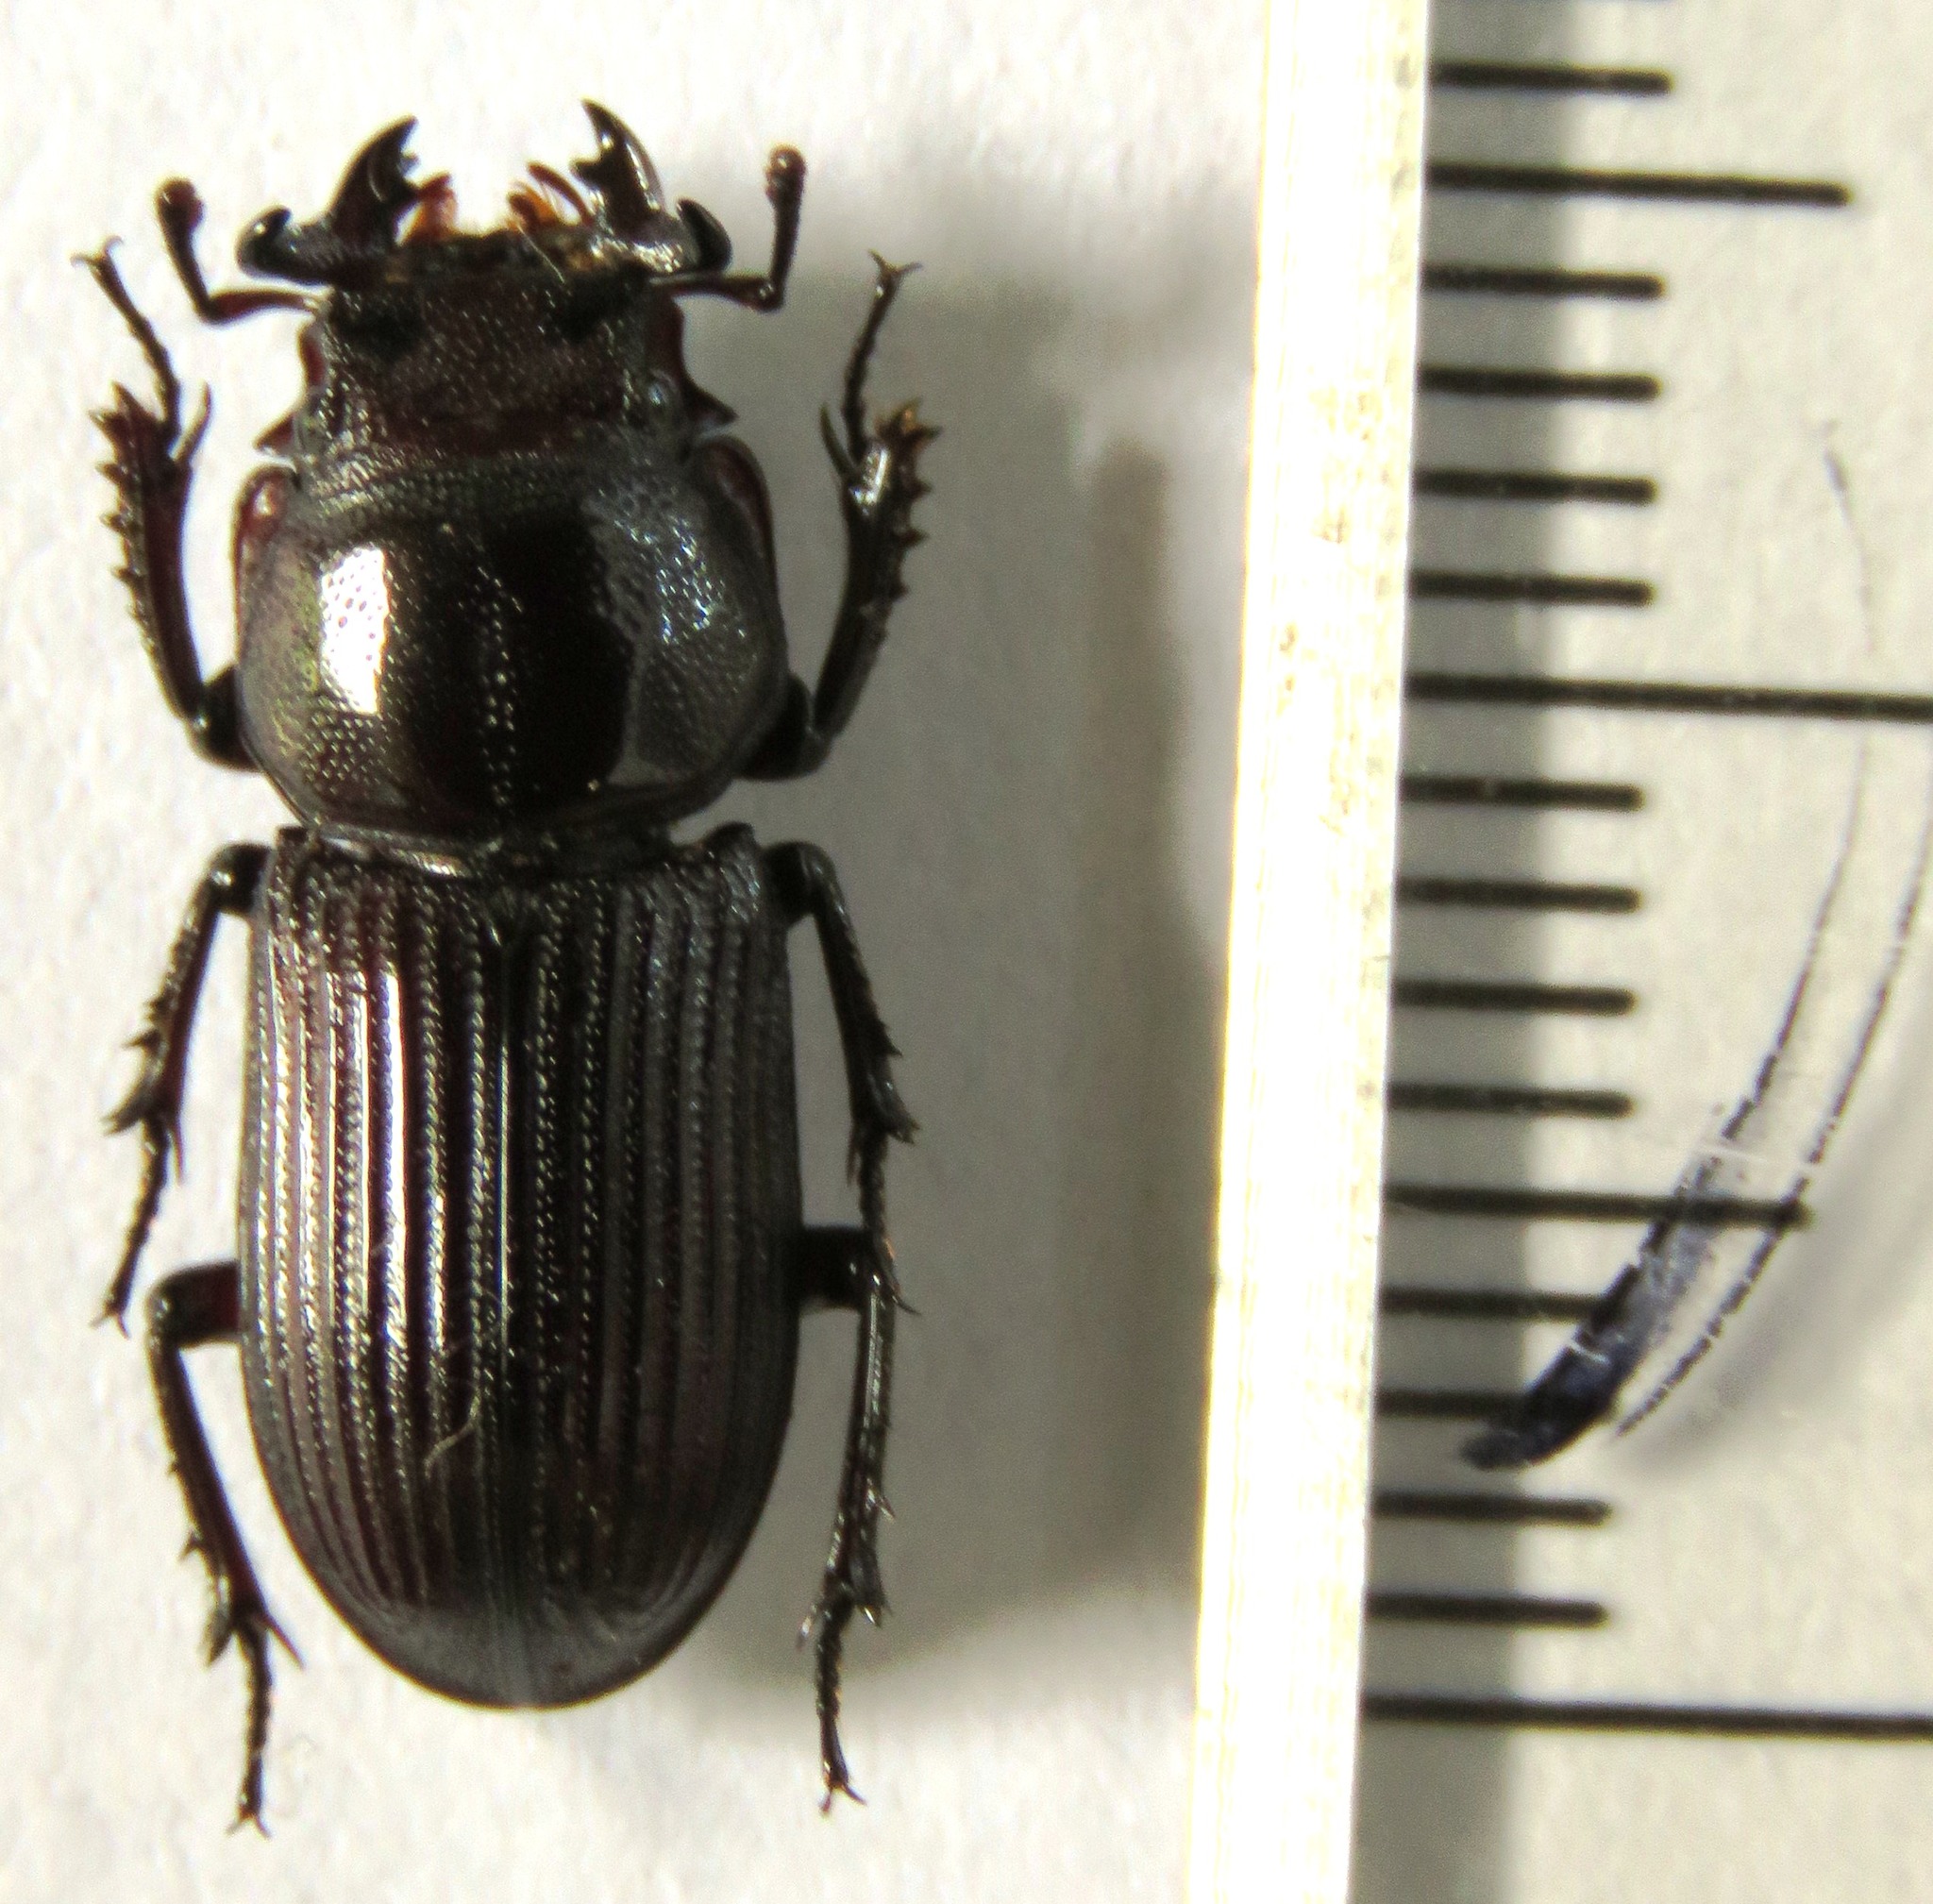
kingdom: Animalia
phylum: Arthropoda
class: Insecta
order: Coleoptera
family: Lucanidae
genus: Nigidius
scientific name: Nigidius lewisi
